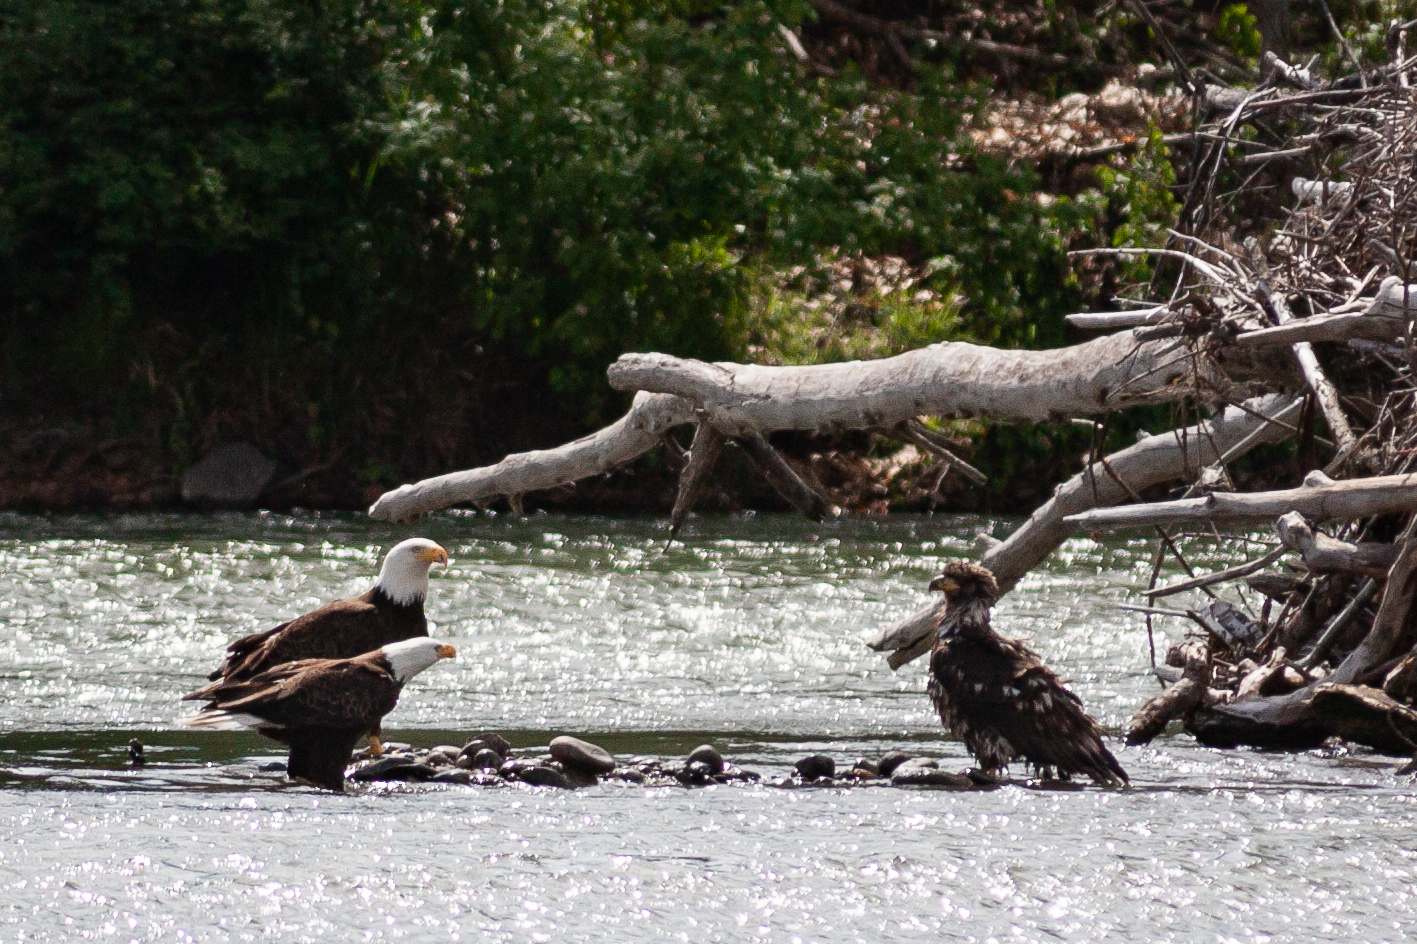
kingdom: Animalia
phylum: Chordata
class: Aves
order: Accipitriformes
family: Accipitridae
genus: Haliaeetus
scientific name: Haliaeetus leucocephalus
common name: Bald eagle
